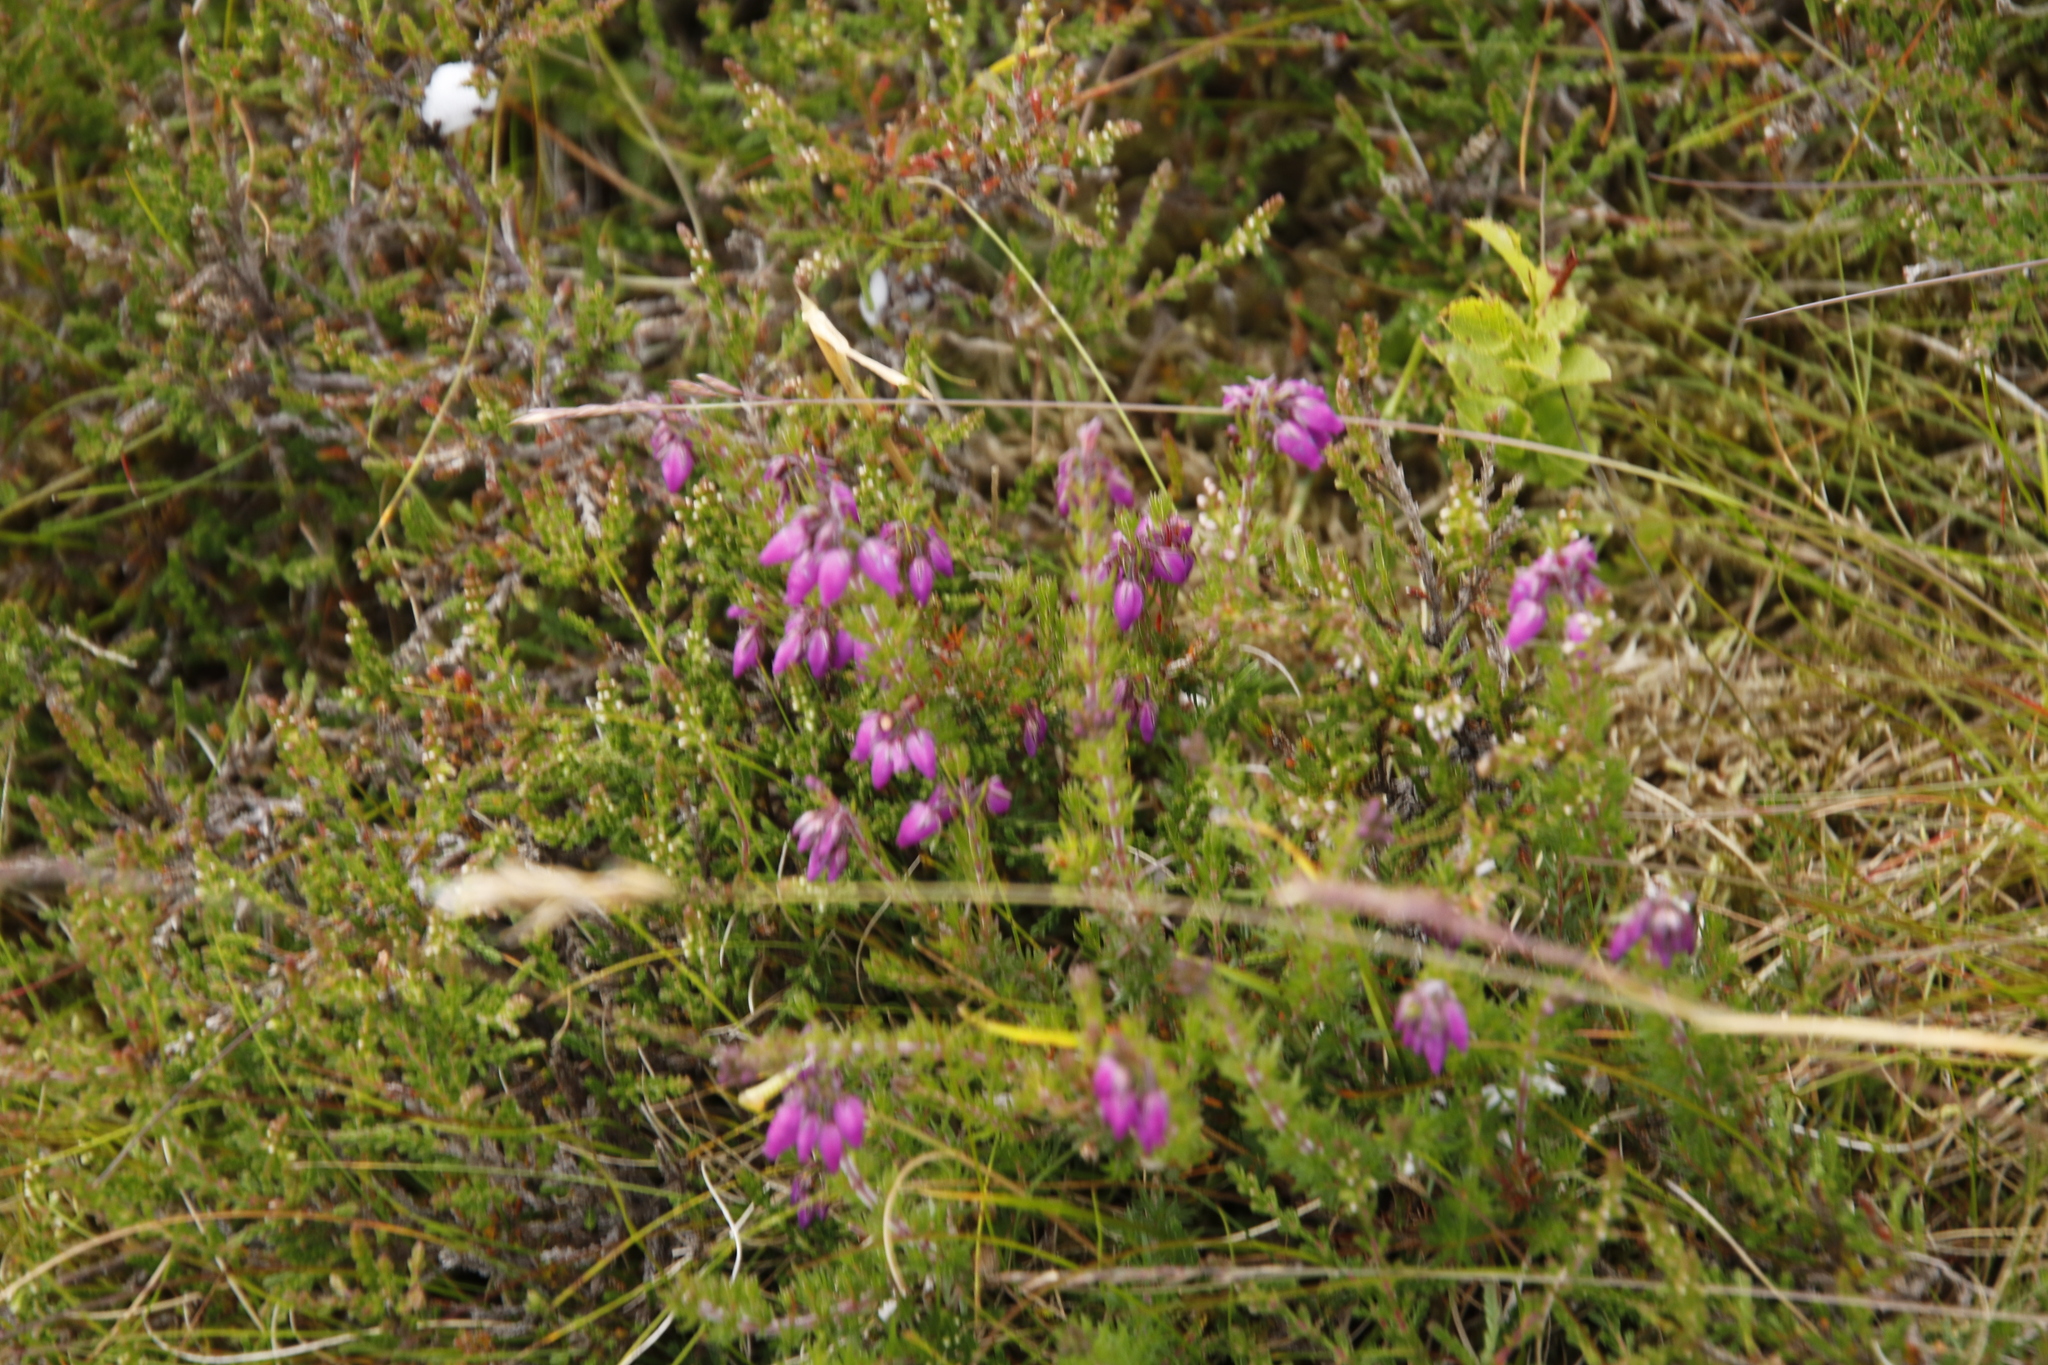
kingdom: Plantae
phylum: Tracheophyta
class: Magnoliopsida
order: Ericales
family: Ericaceae
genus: Erica
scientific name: Erica cinerea
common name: Bell heather
